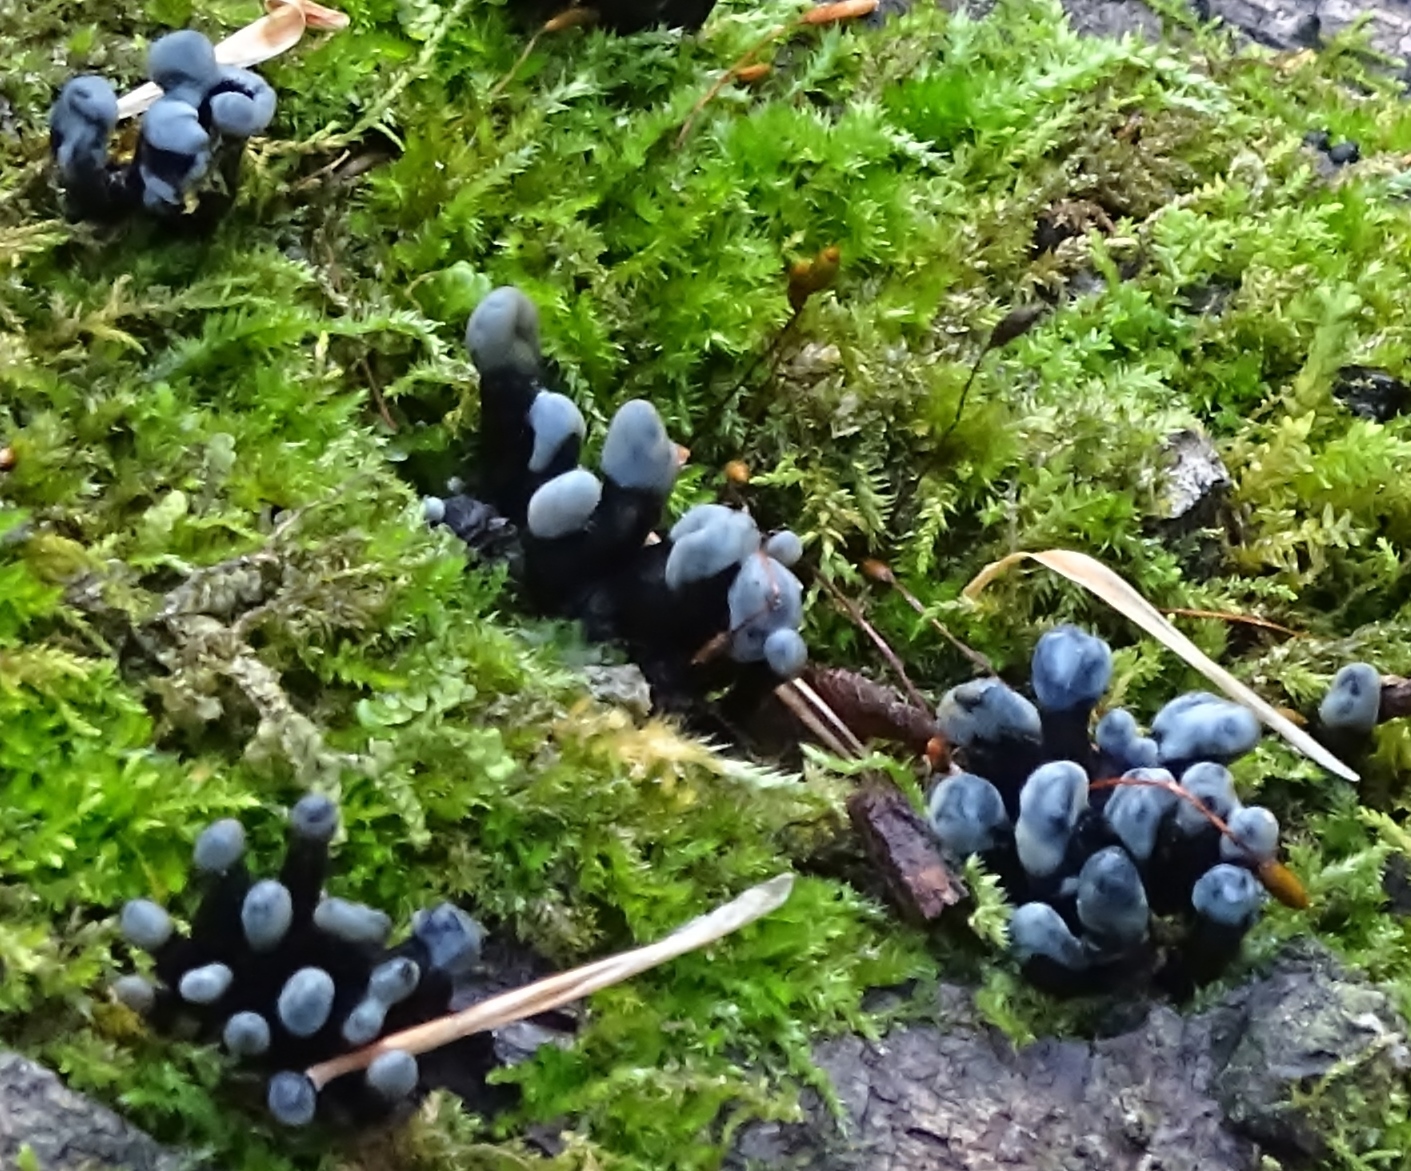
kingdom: Fungi
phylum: Ascomycota
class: Leotiomycetes
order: Helotiales
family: Bulgariaceae
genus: Holwaya
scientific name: Holwaya mucida
